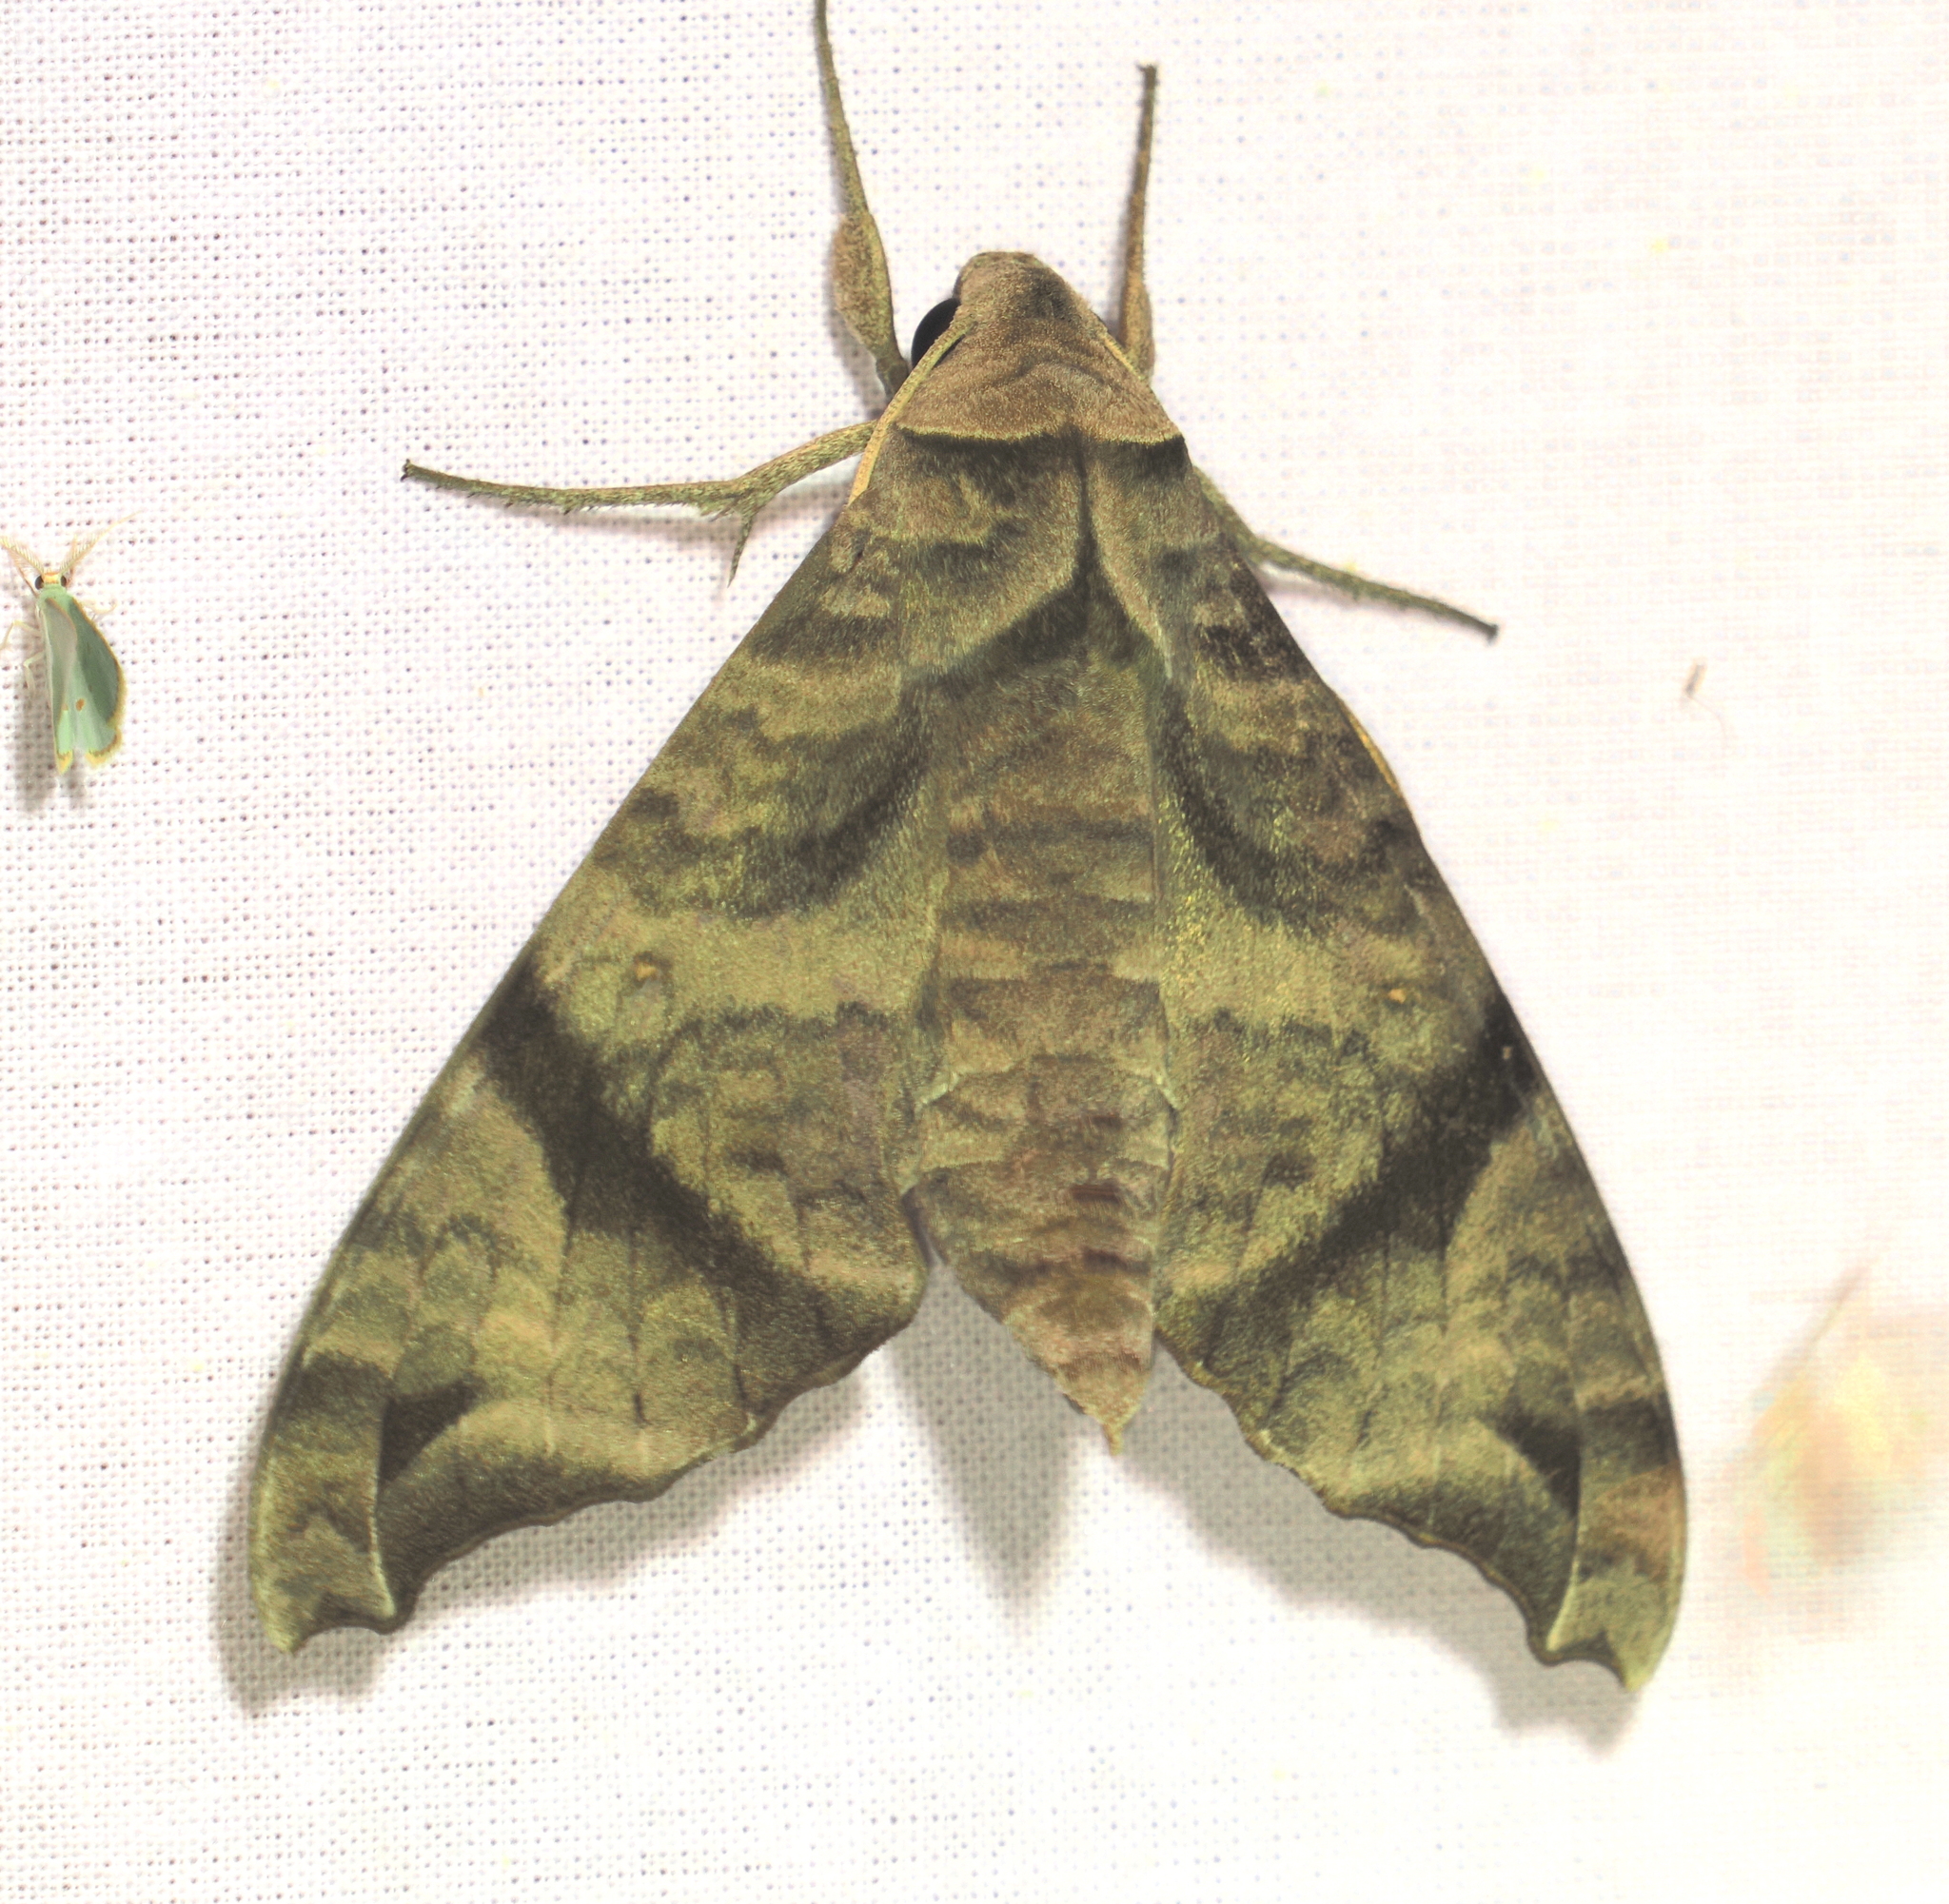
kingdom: Animalia
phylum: Arthropoda
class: Insecta
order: Lepidoptera
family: Sphingidae
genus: Acosmeryx
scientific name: Acosmeryx omissa
